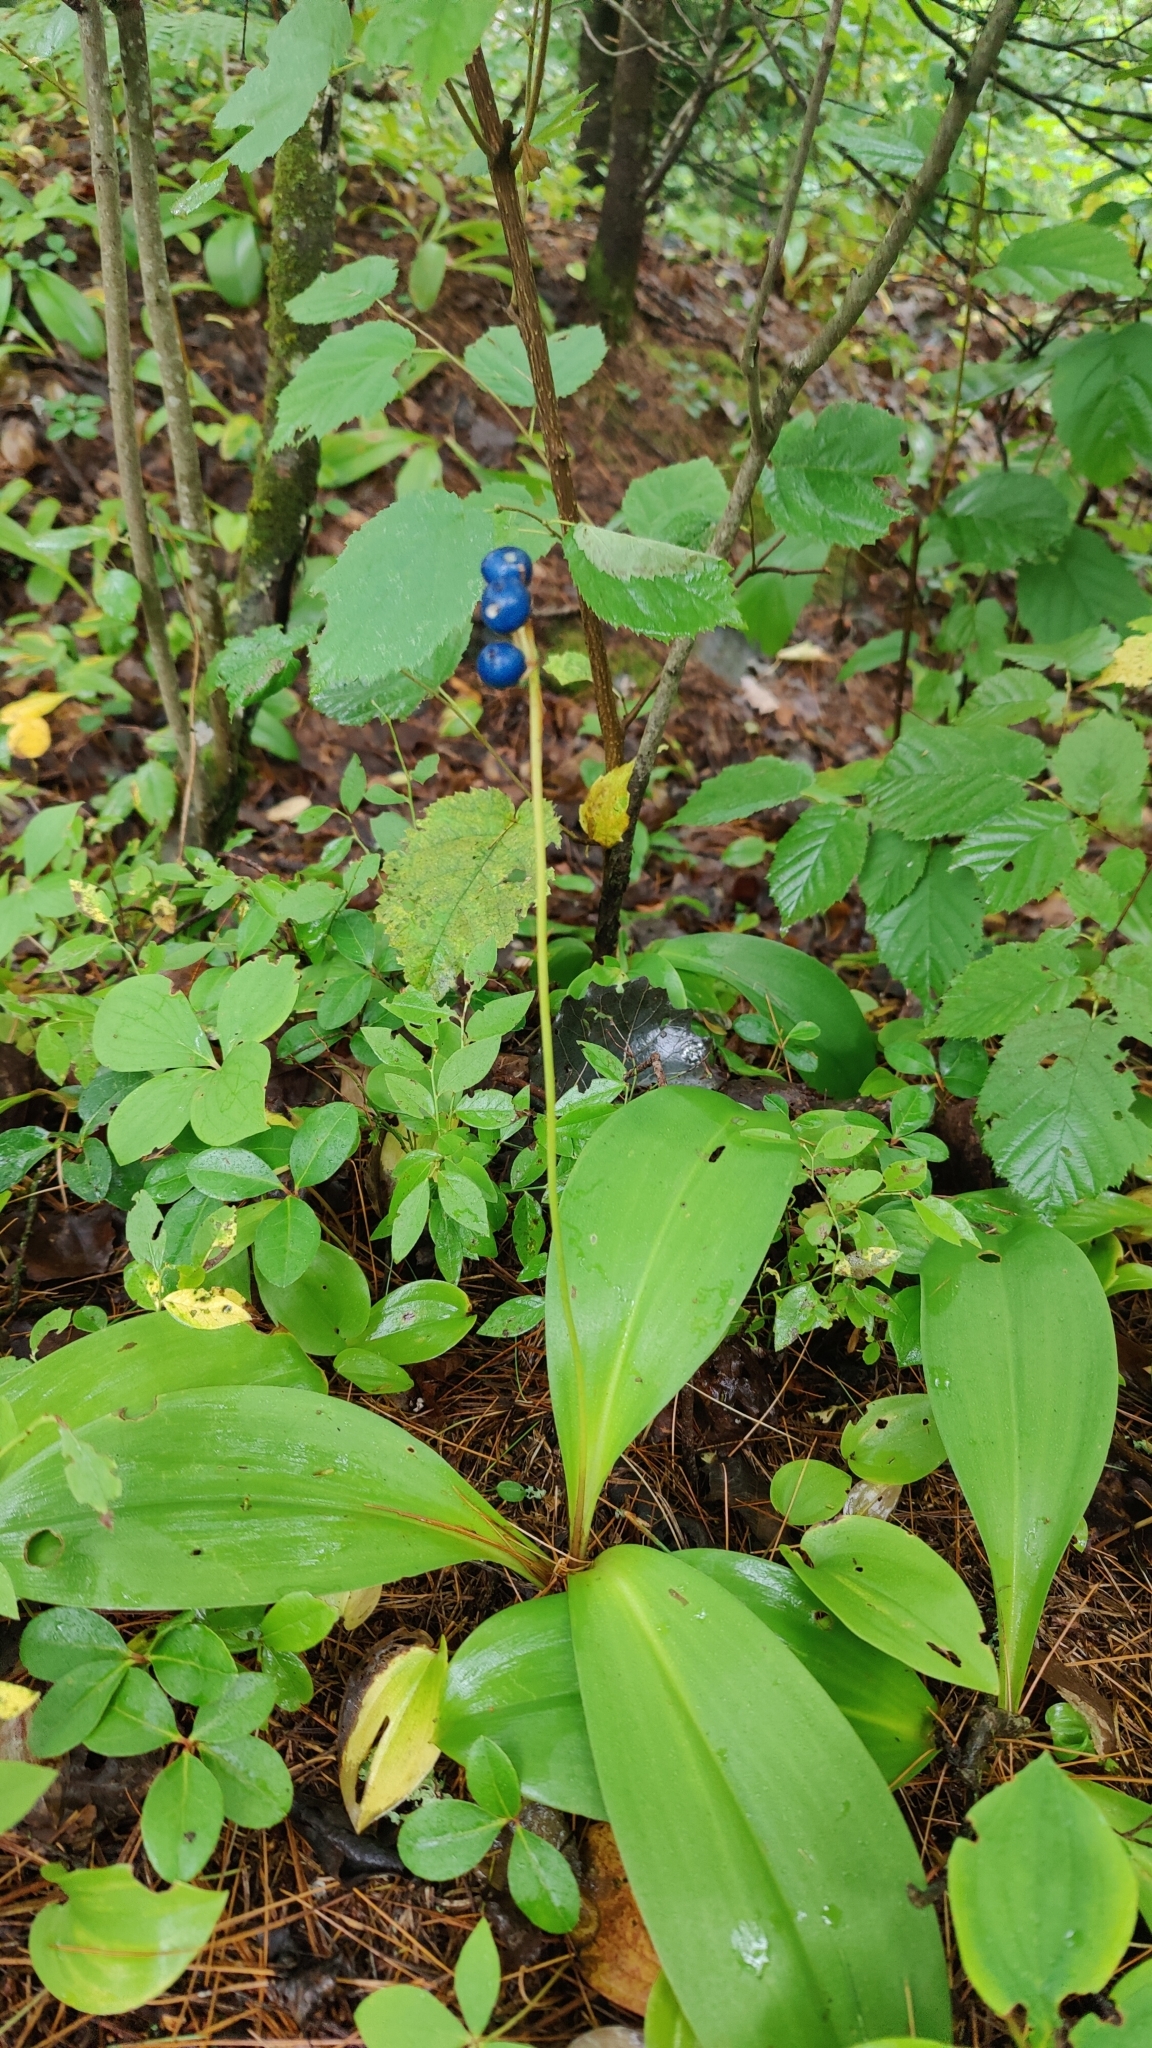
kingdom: Plantae
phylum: Tracheophyta
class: Liliopsida
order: Liliales
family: Liliaceae
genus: Clintonia
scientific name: Clintonia borealis
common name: Yellow clintonia
